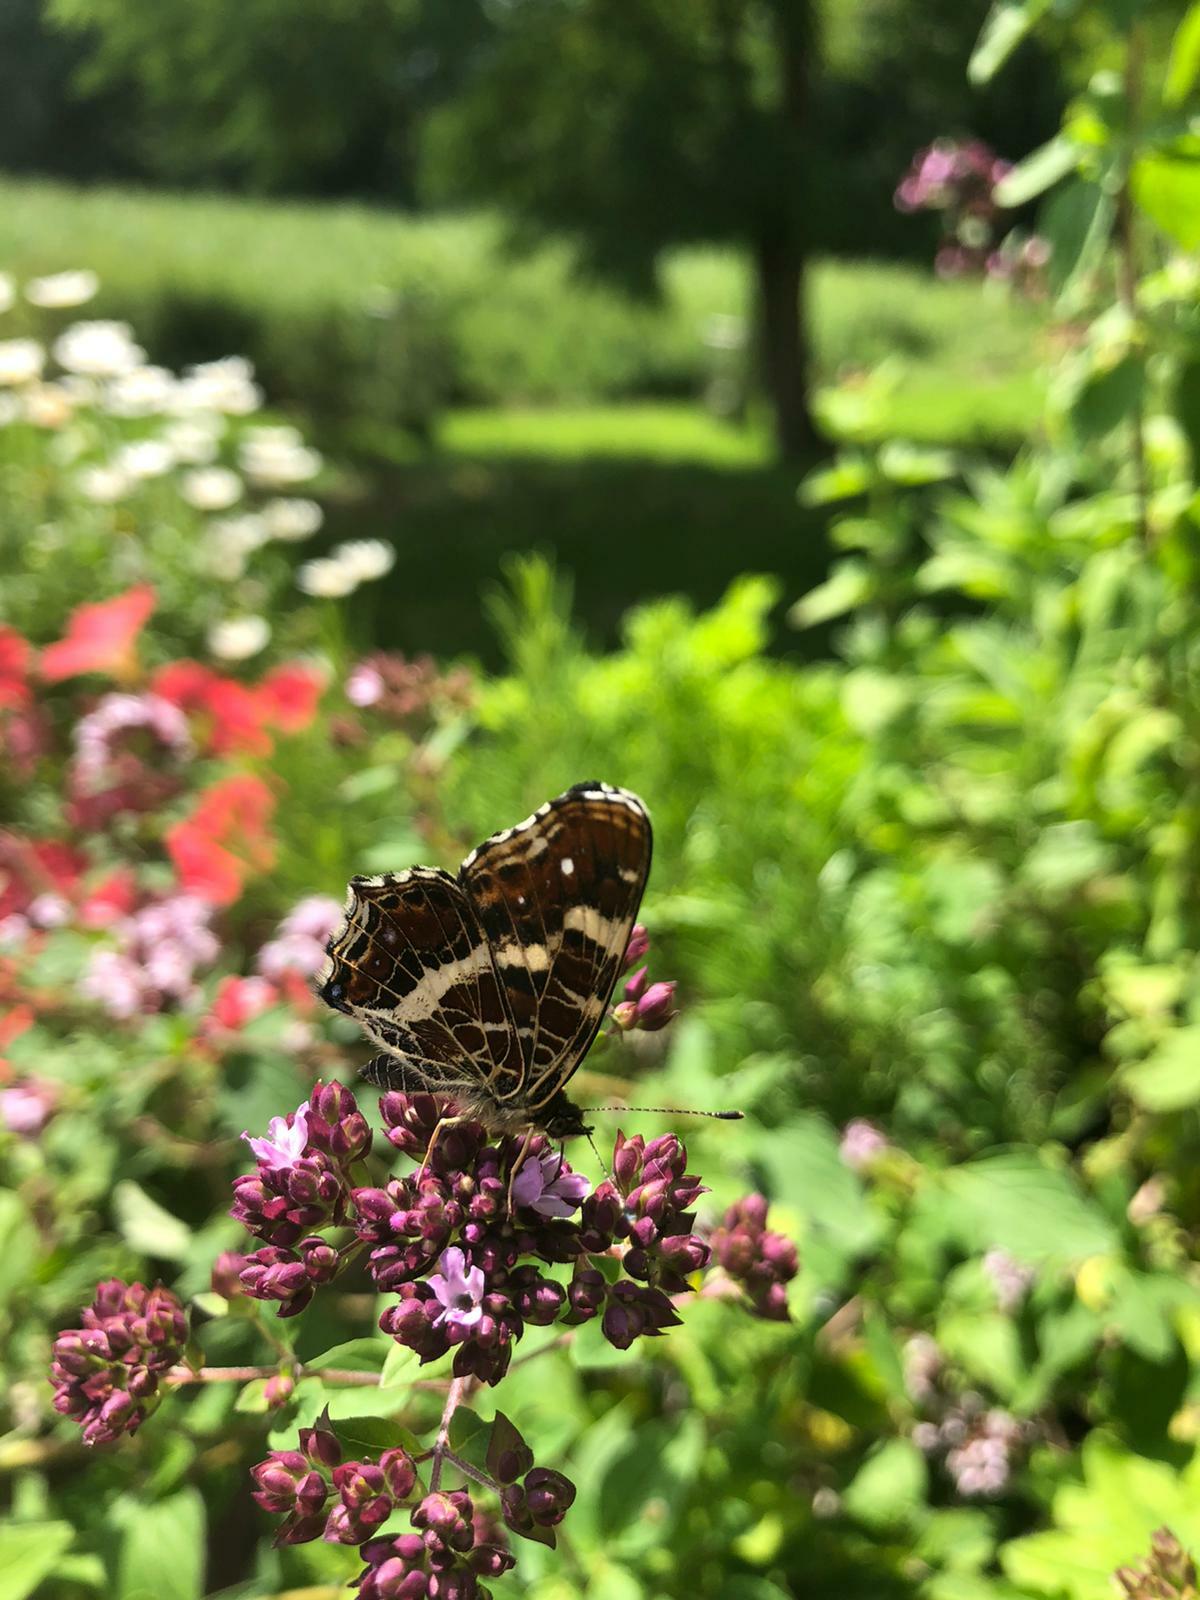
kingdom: Animalia
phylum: Arthropoda
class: Insecta
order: Lepidoptera
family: Nymphalidae
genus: Araschnia
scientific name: Araschnia levana
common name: Map butterfly
